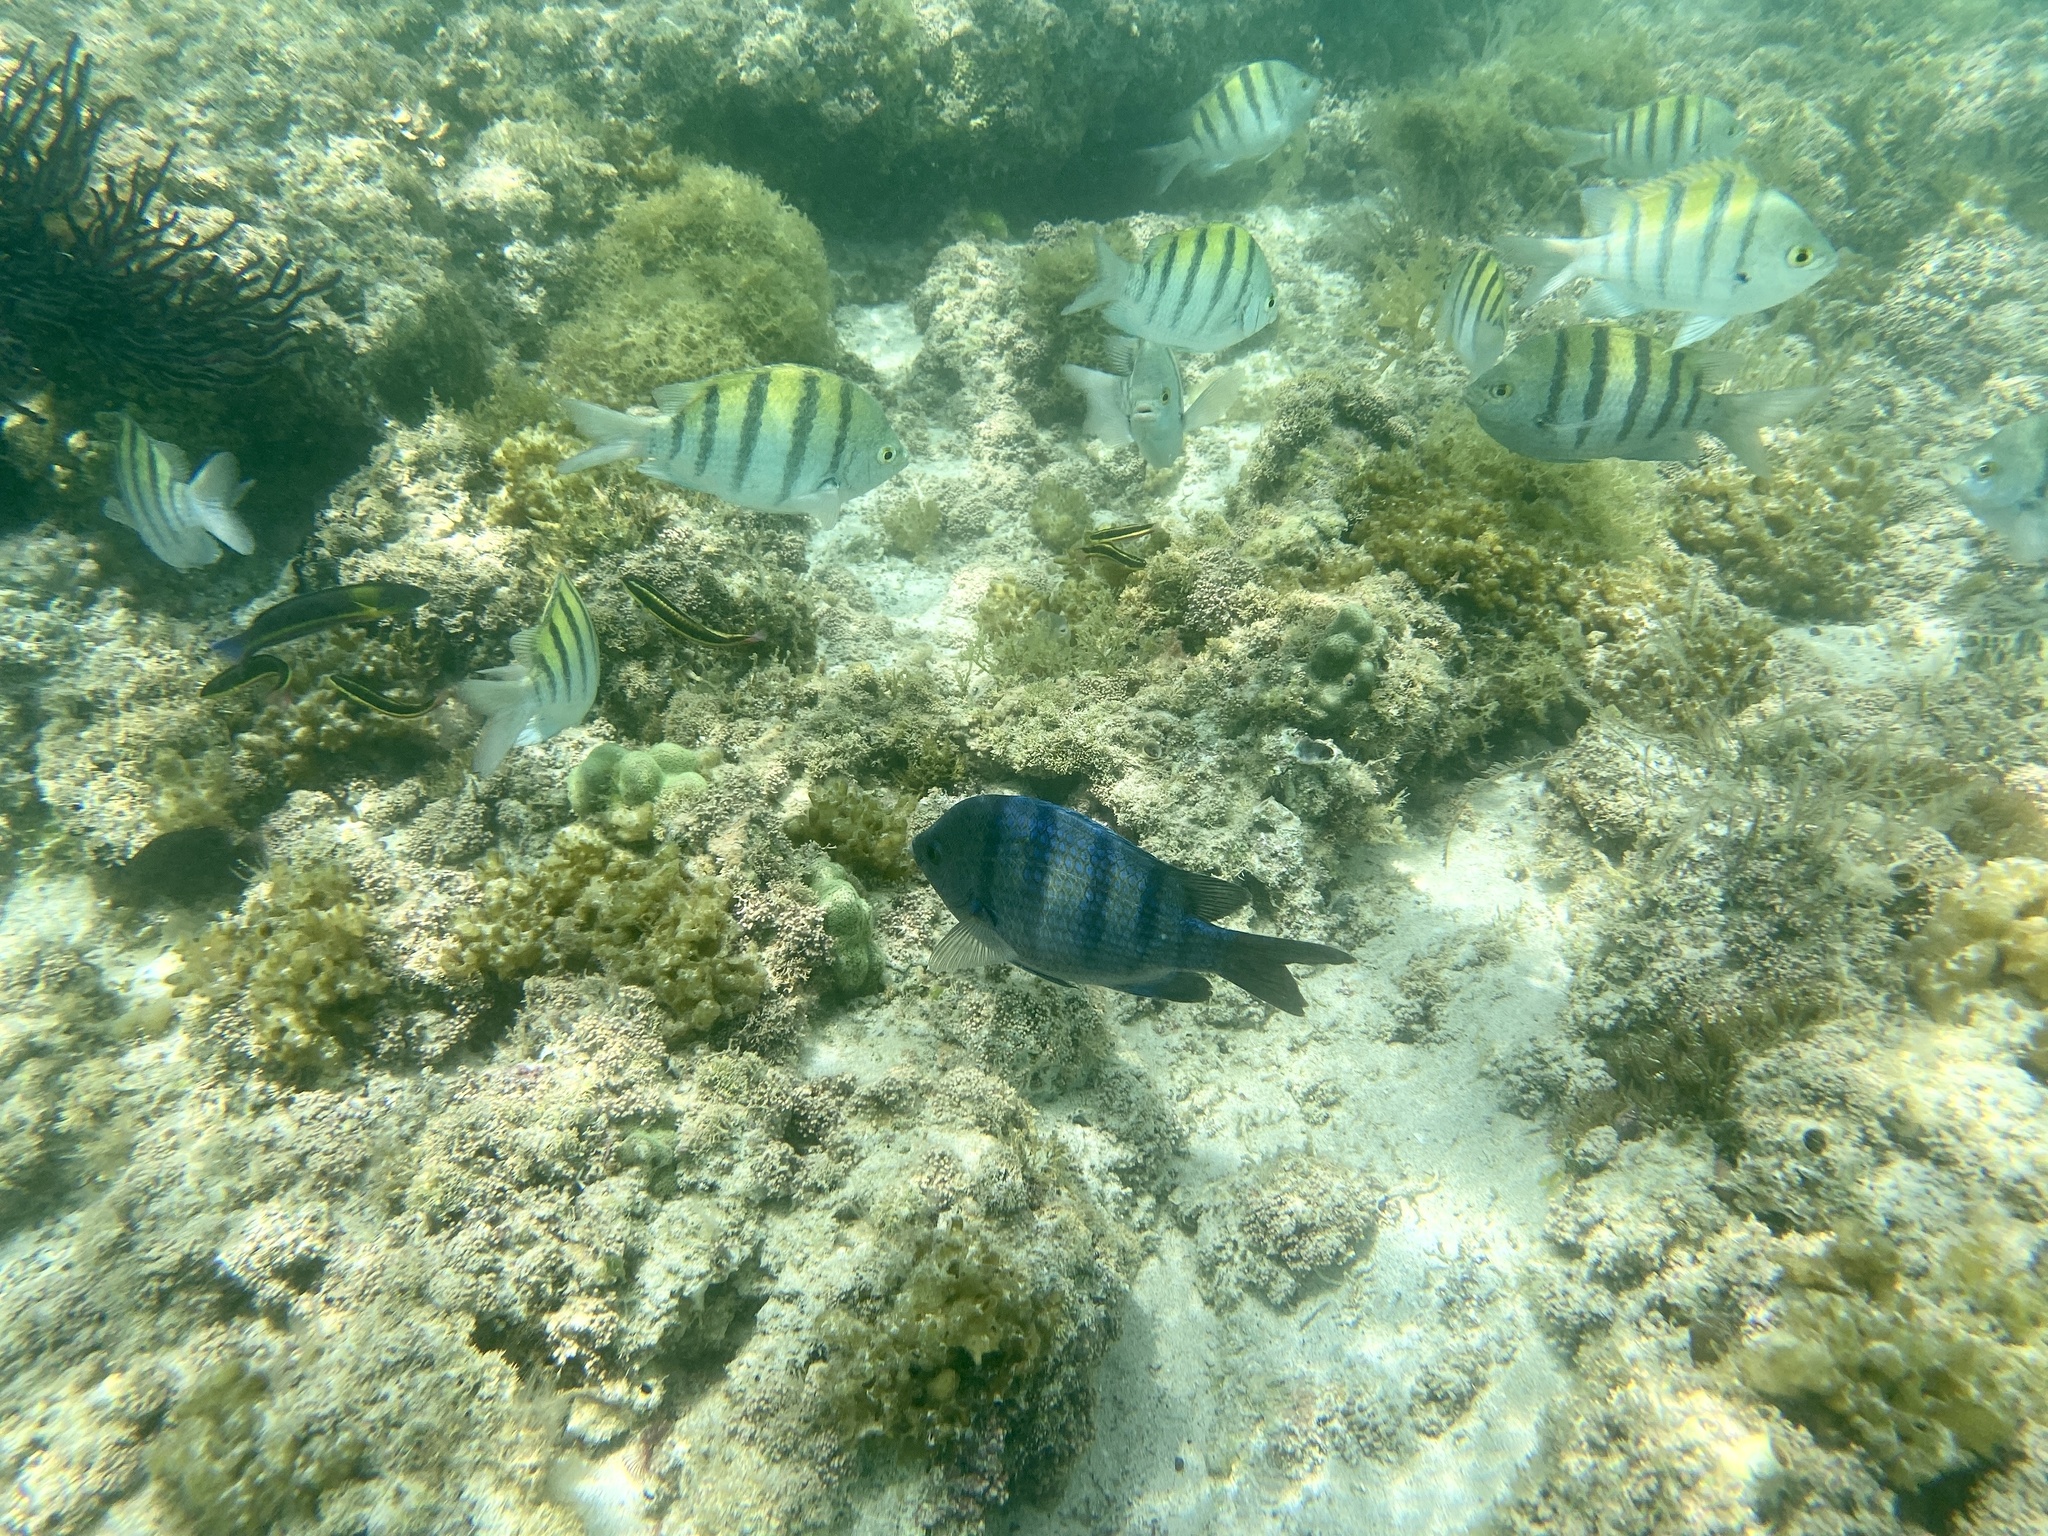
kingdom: Animalia
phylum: Chordata
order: Perciformes
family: Pomacentridae
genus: Abudefduf
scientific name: Abudefduf troschelii
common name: Panamic sergeant major
